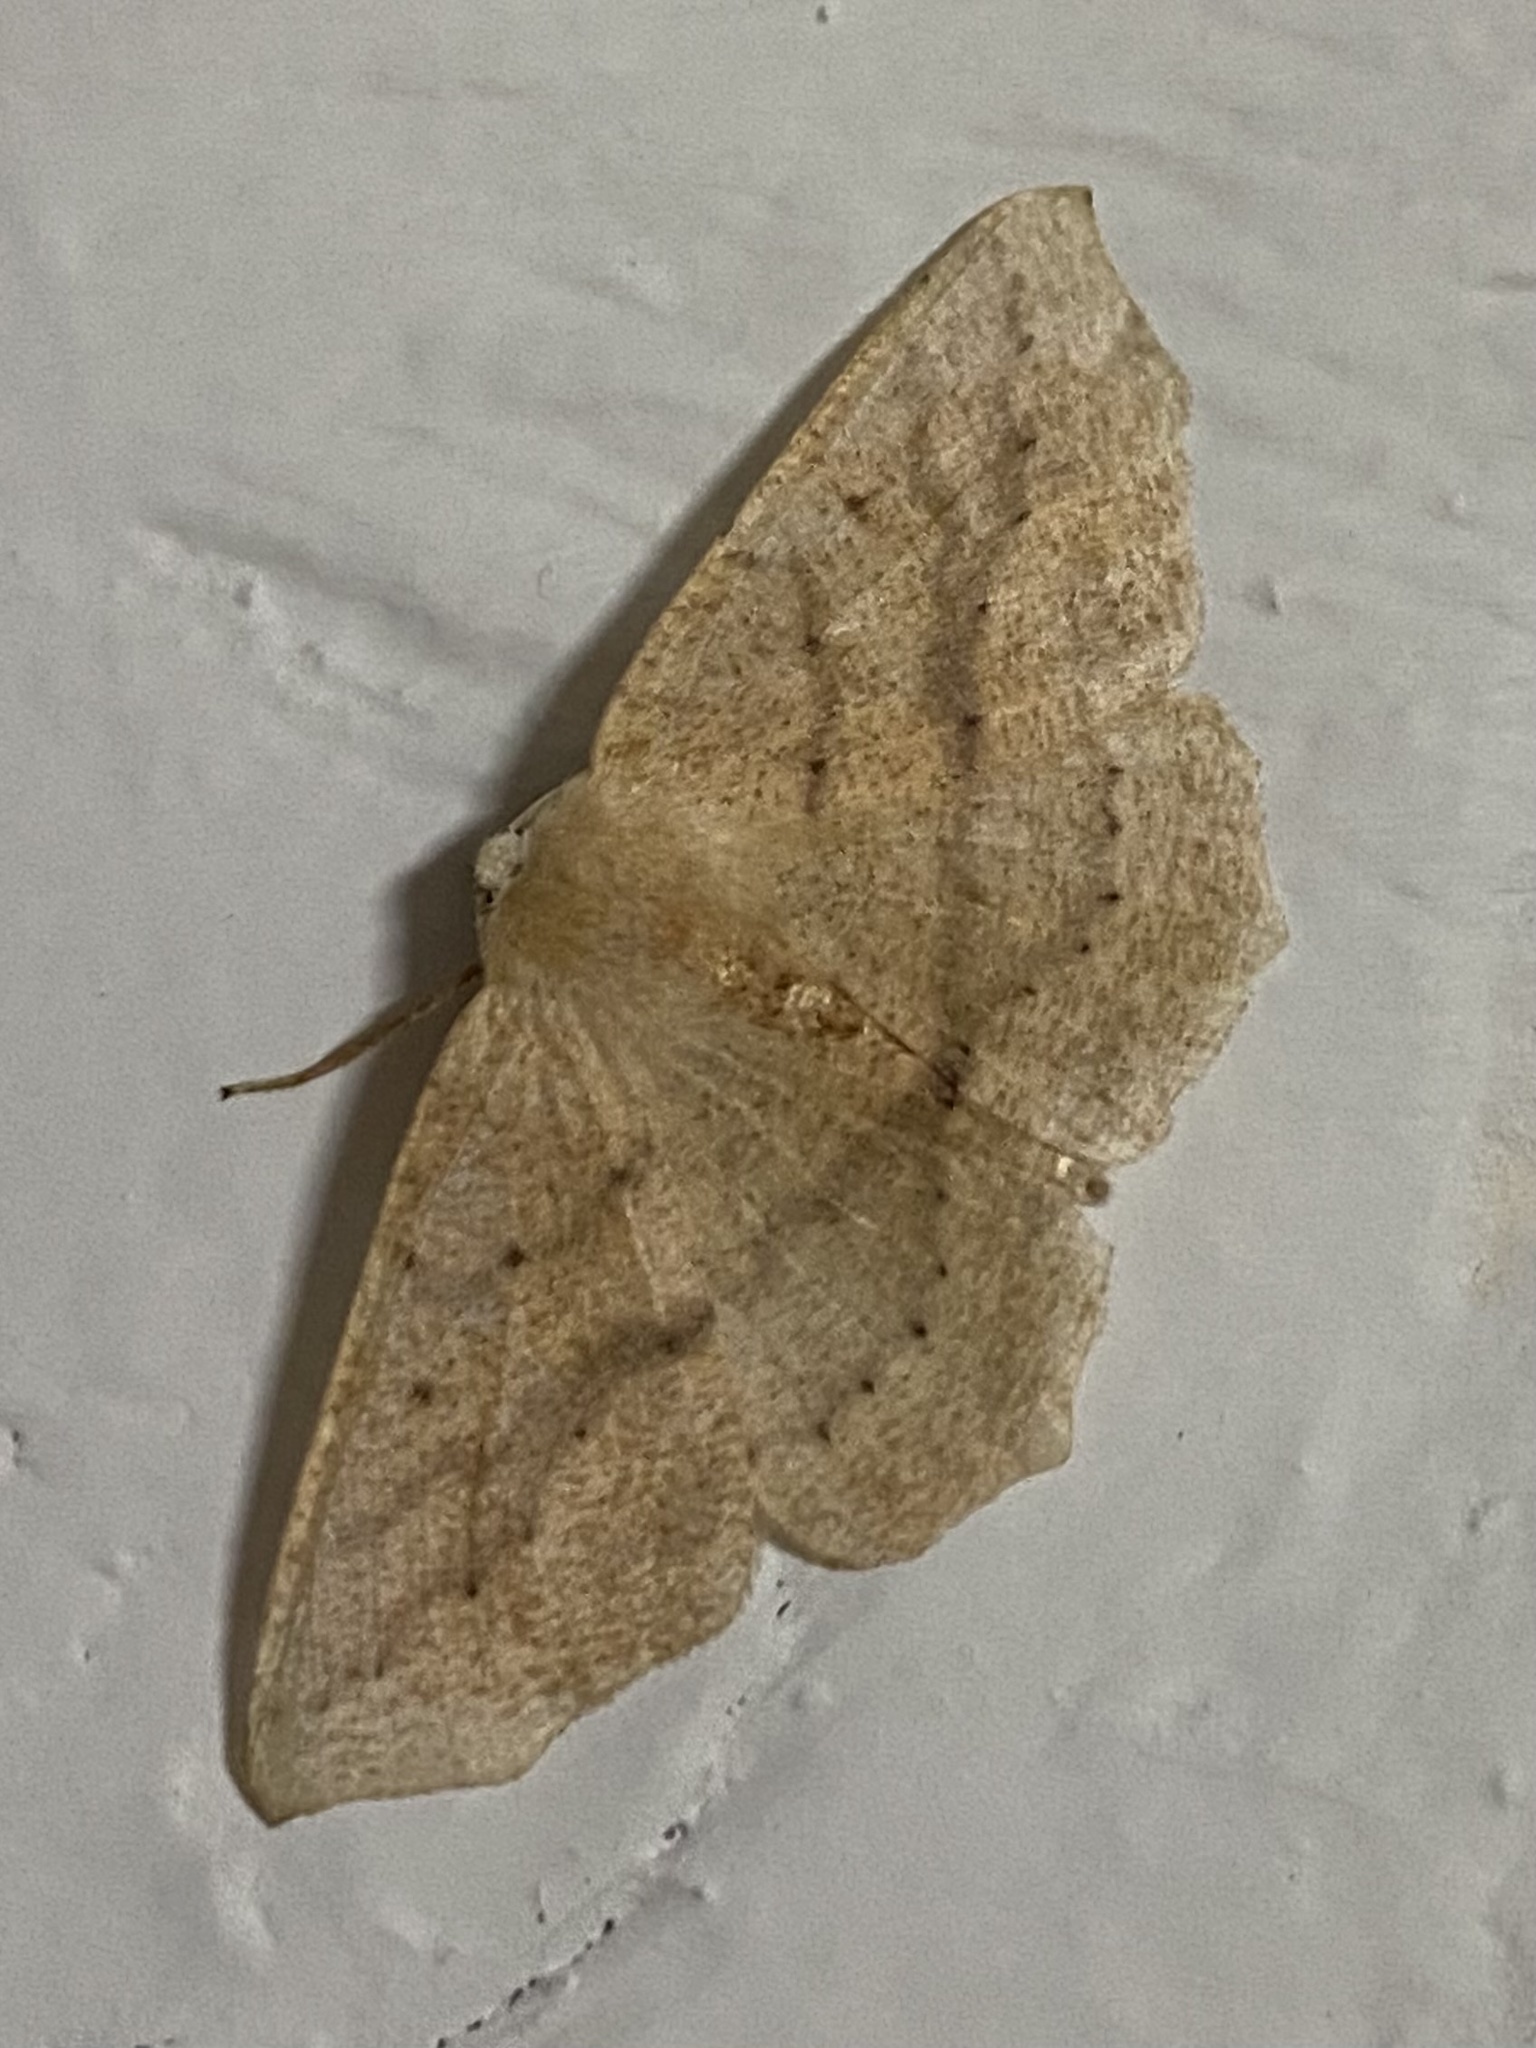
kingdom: Animalia
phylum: Arthropoda
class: Insecta
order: Lepidoptera
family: Geometridae
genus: Sabulodes
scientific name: Sabulodes aegrotata
